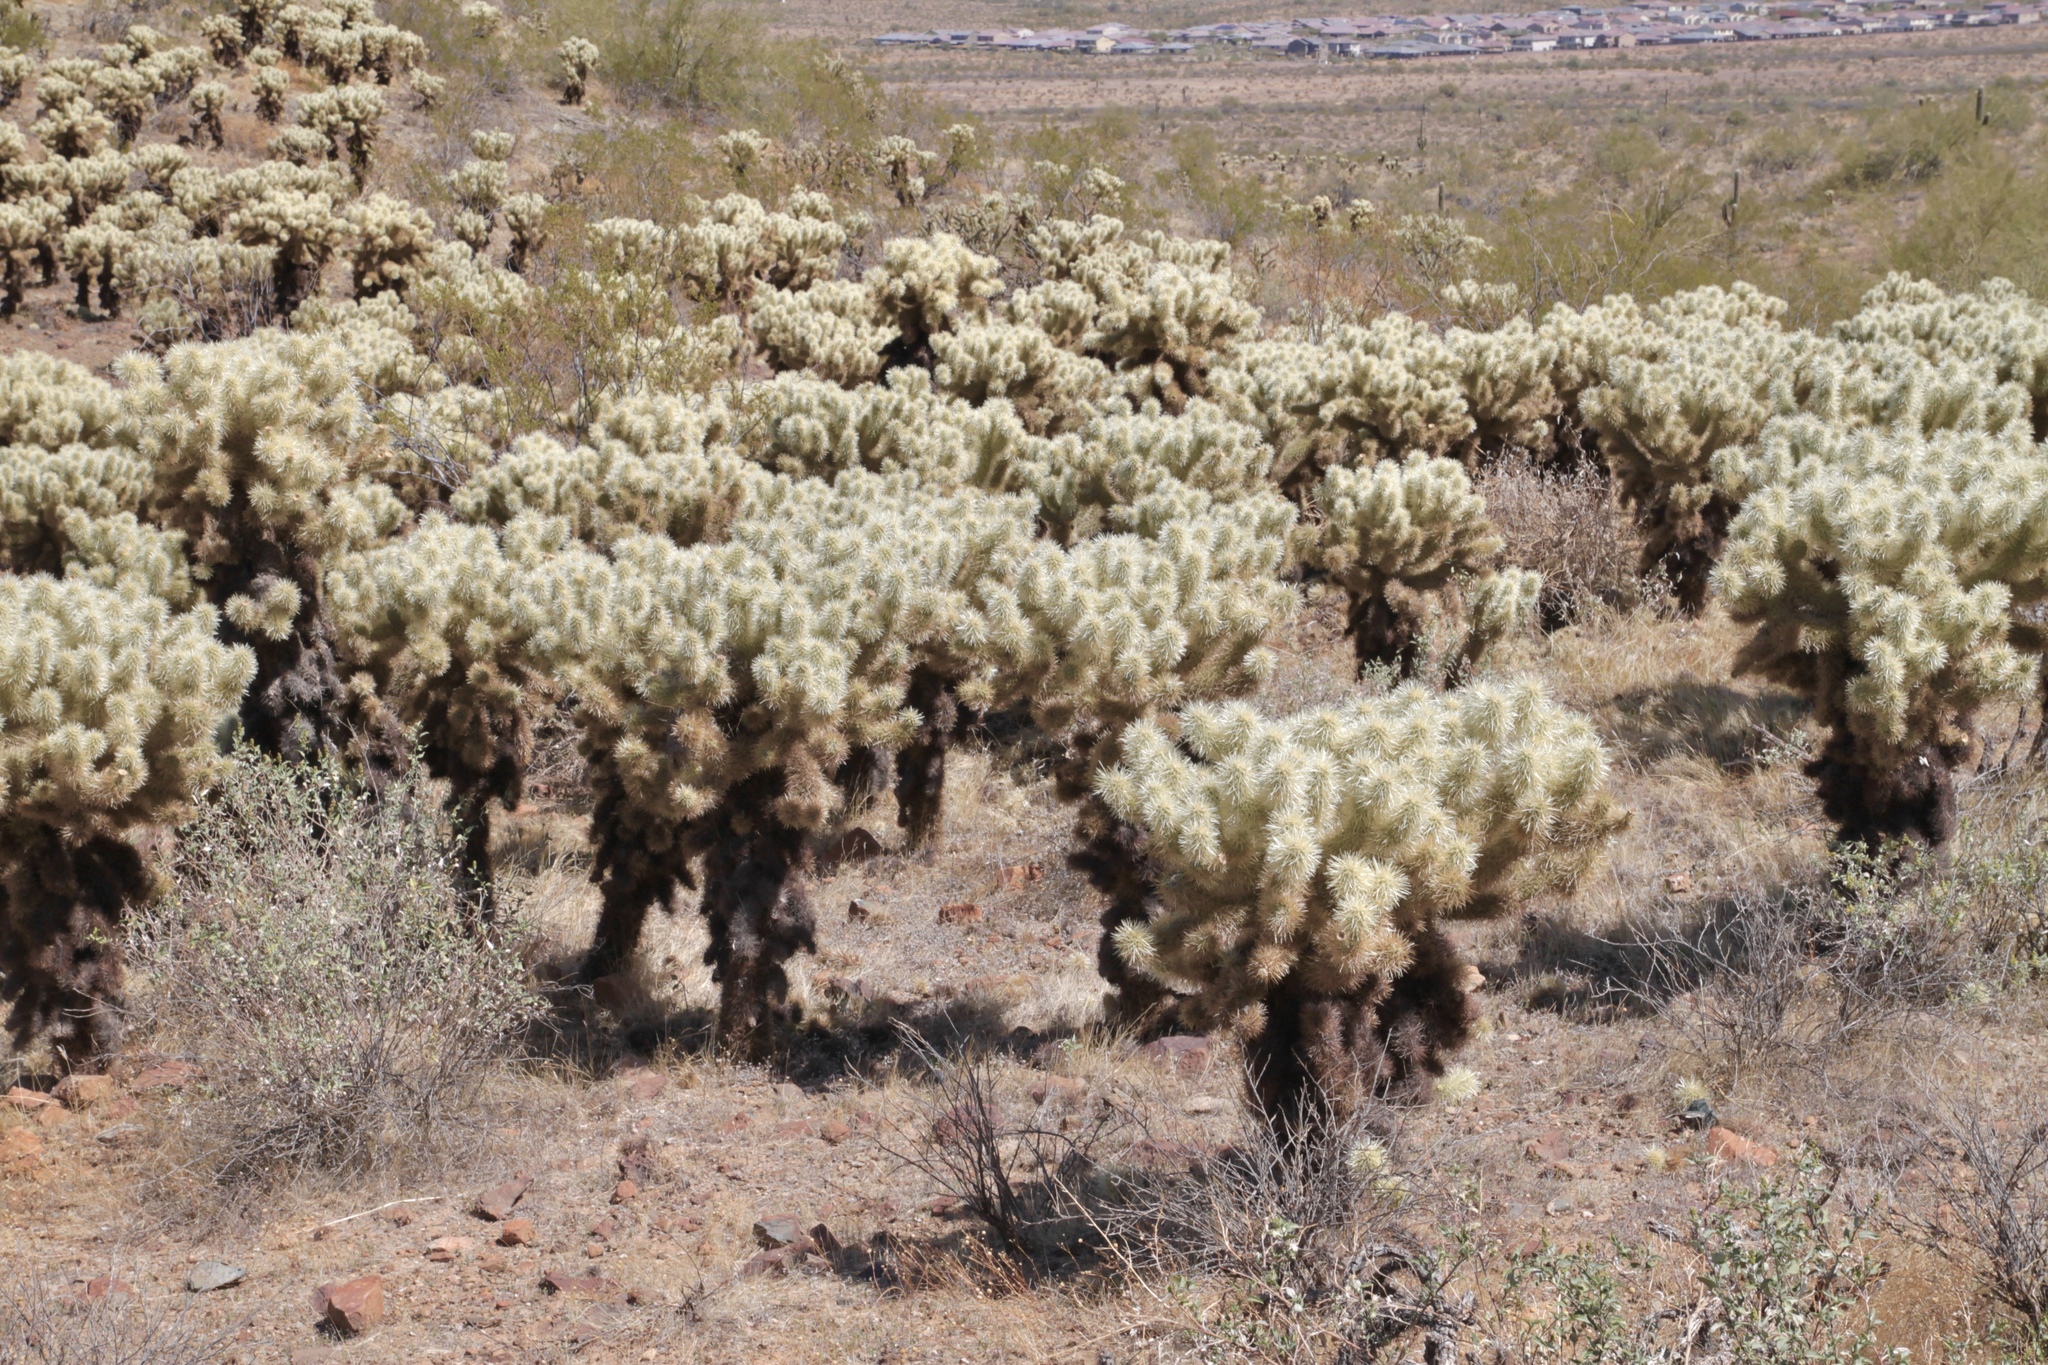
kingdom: Plantae
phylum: Tracheophyta
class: Magnoliopsida
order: Caryophyllales
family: Cactaceae
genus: Cylindropuntia
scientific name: Cylindropuntia fosbergii
